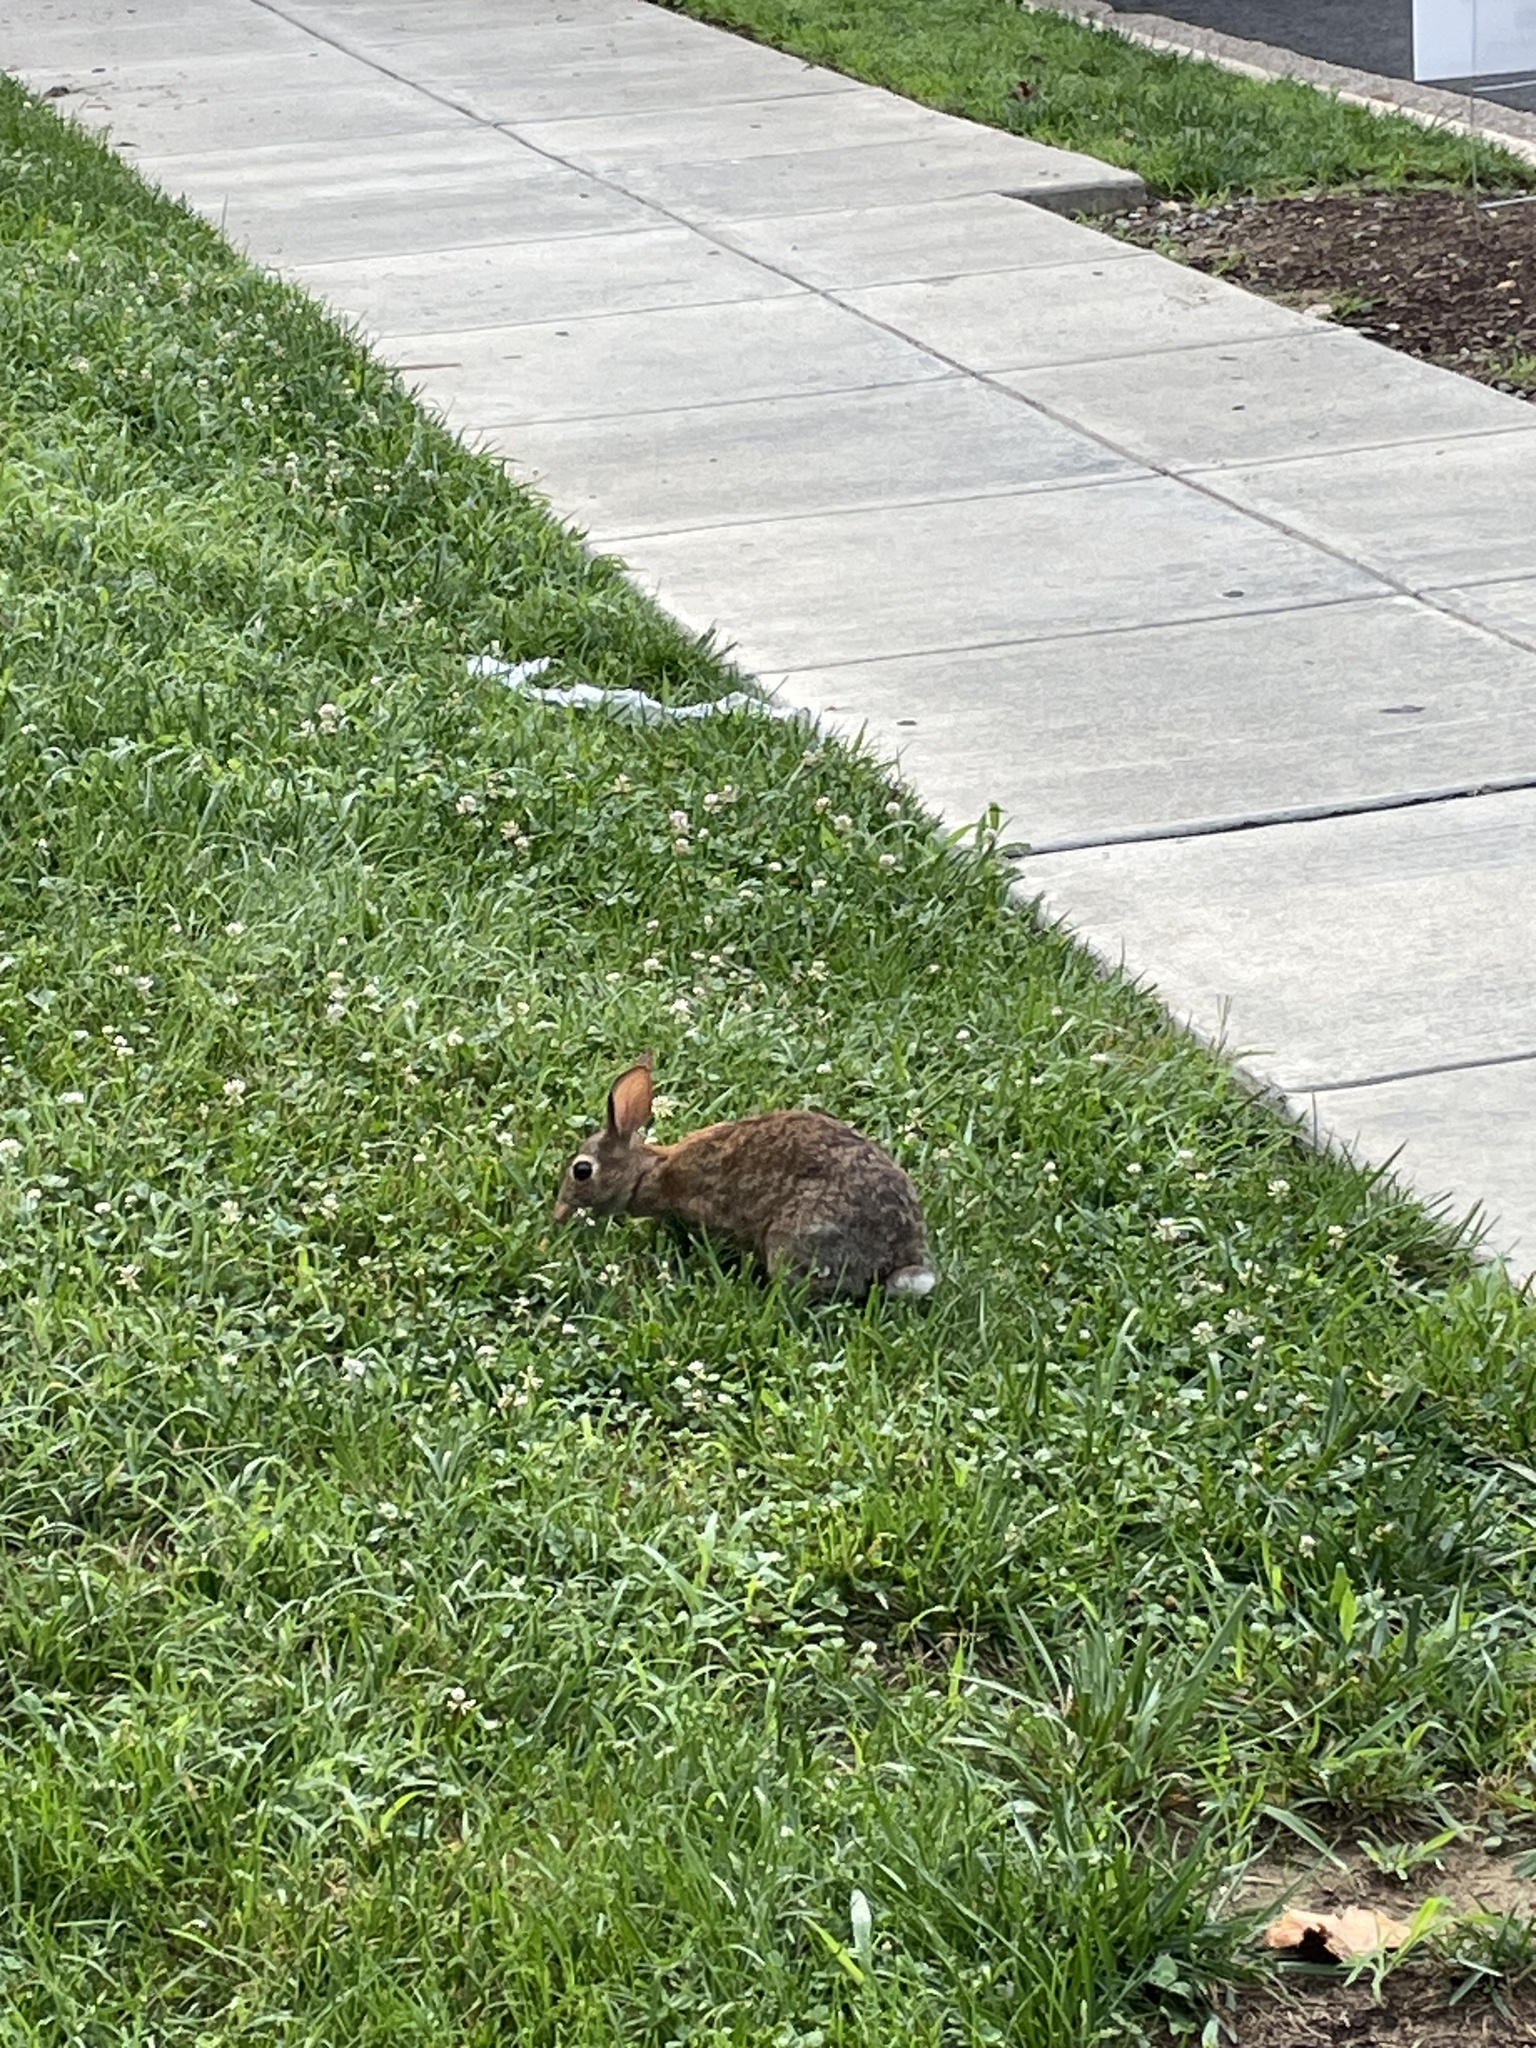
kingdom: Animalia
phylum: Chordata
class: Mammalia
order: Lagomorpha
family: Leporidae
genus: Sylvilagus
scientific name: Sylvilagus floridanus
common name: Eastern cottontail
